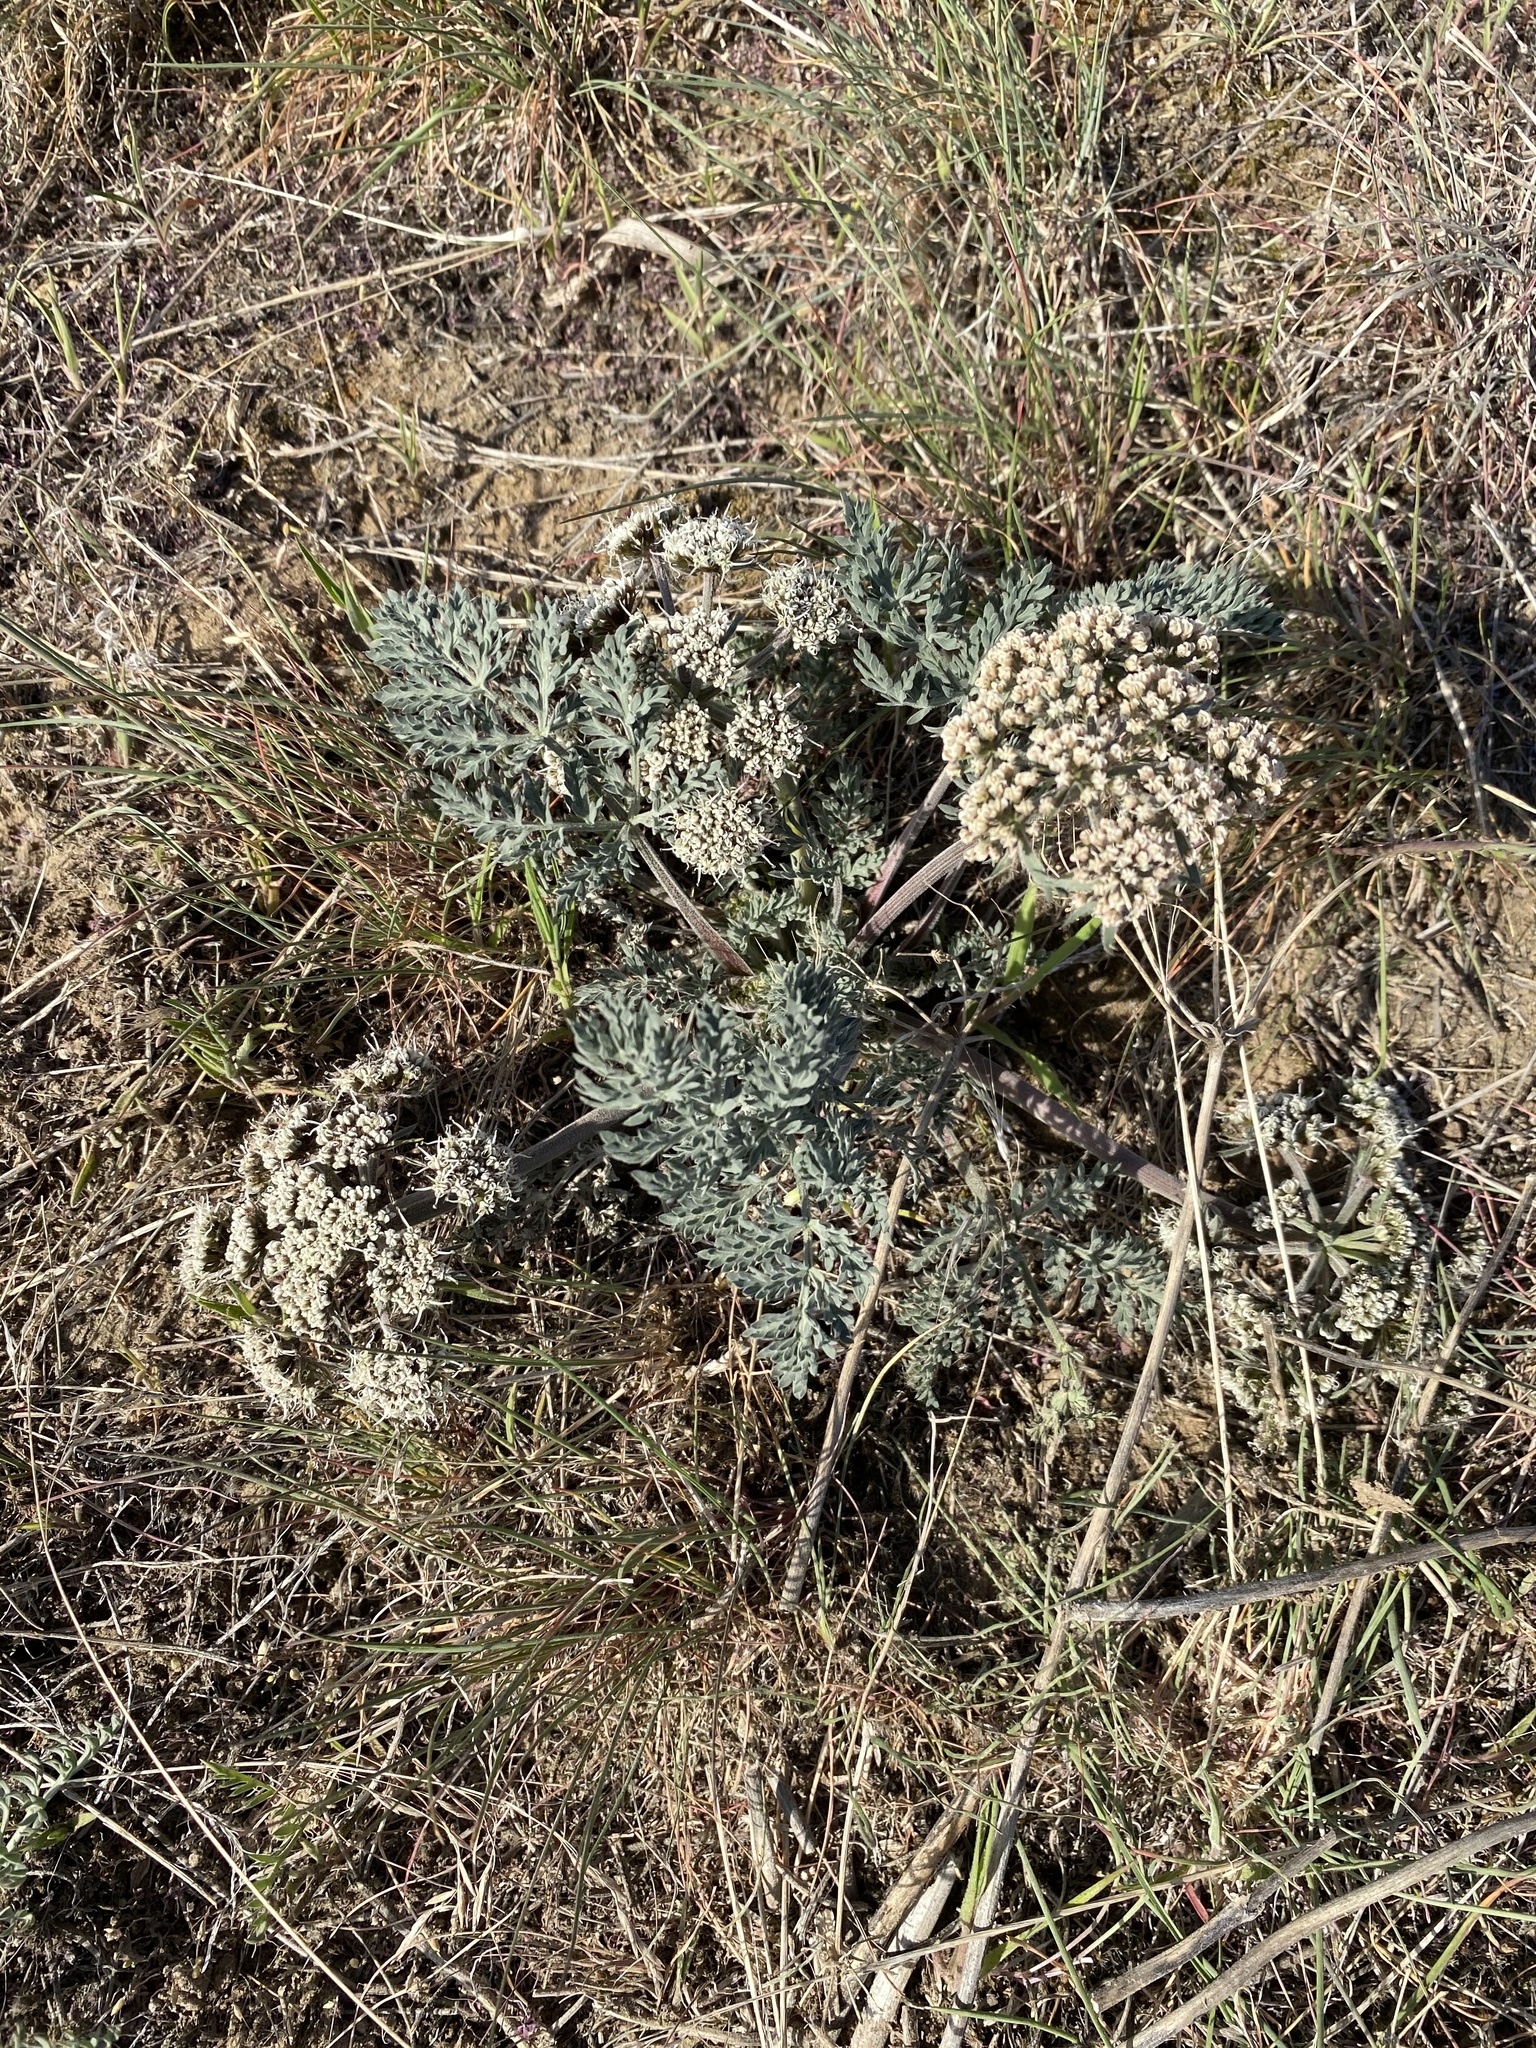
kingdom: Plantae
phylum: Tracheophyta
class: Magnoliopsida
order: Apiales
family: Apiaceae
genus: Lomatium
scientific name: Lomatium macrocarpum
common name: Big-seed biscuitroot
